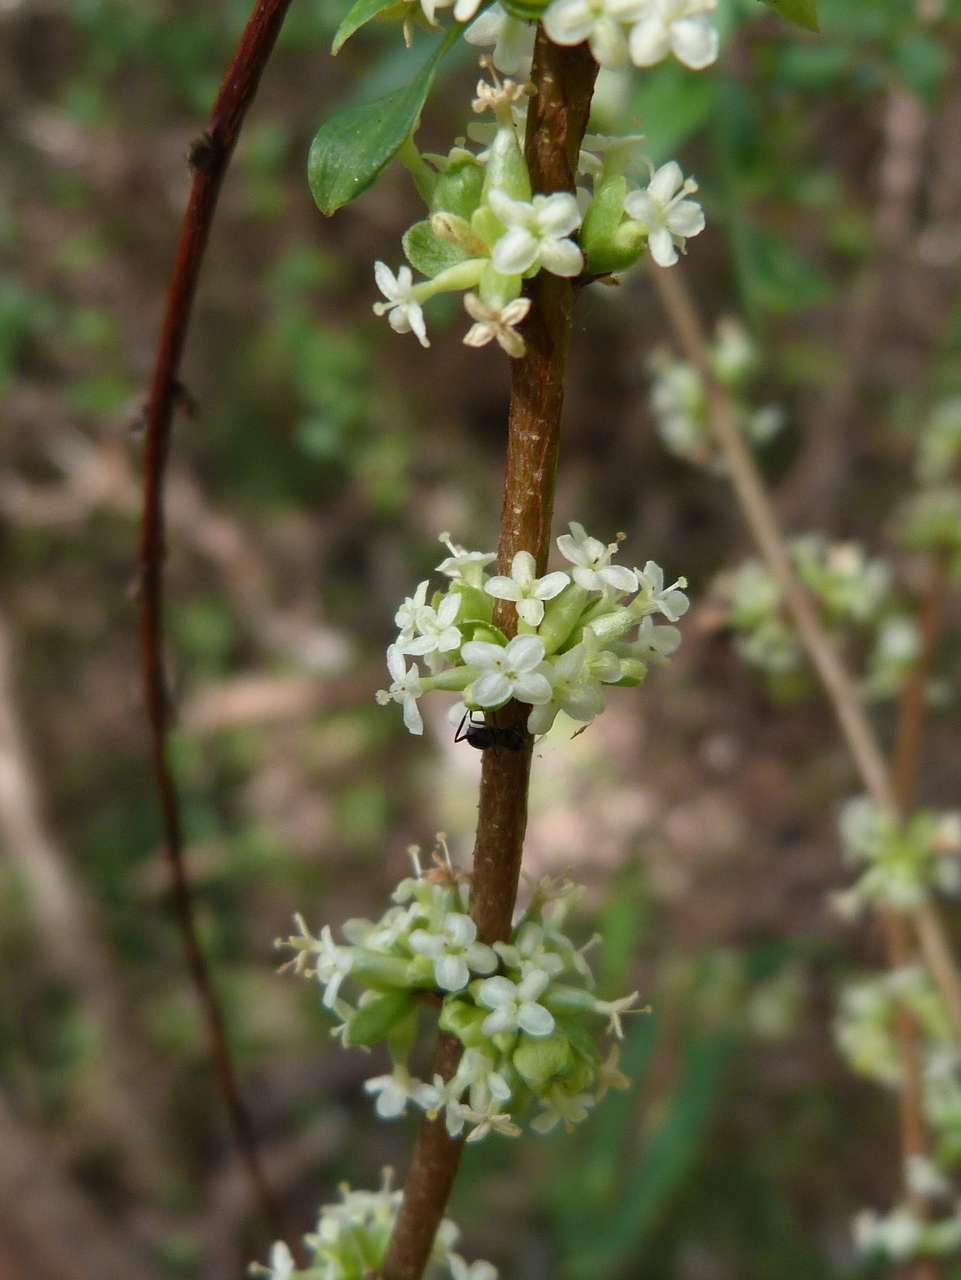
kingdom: Plantae
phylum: Tracheophyta
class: Magnoliopsida
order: Malvales
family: Thymelaeaceae
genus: Pimelea
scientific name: Pimelea axiflora
